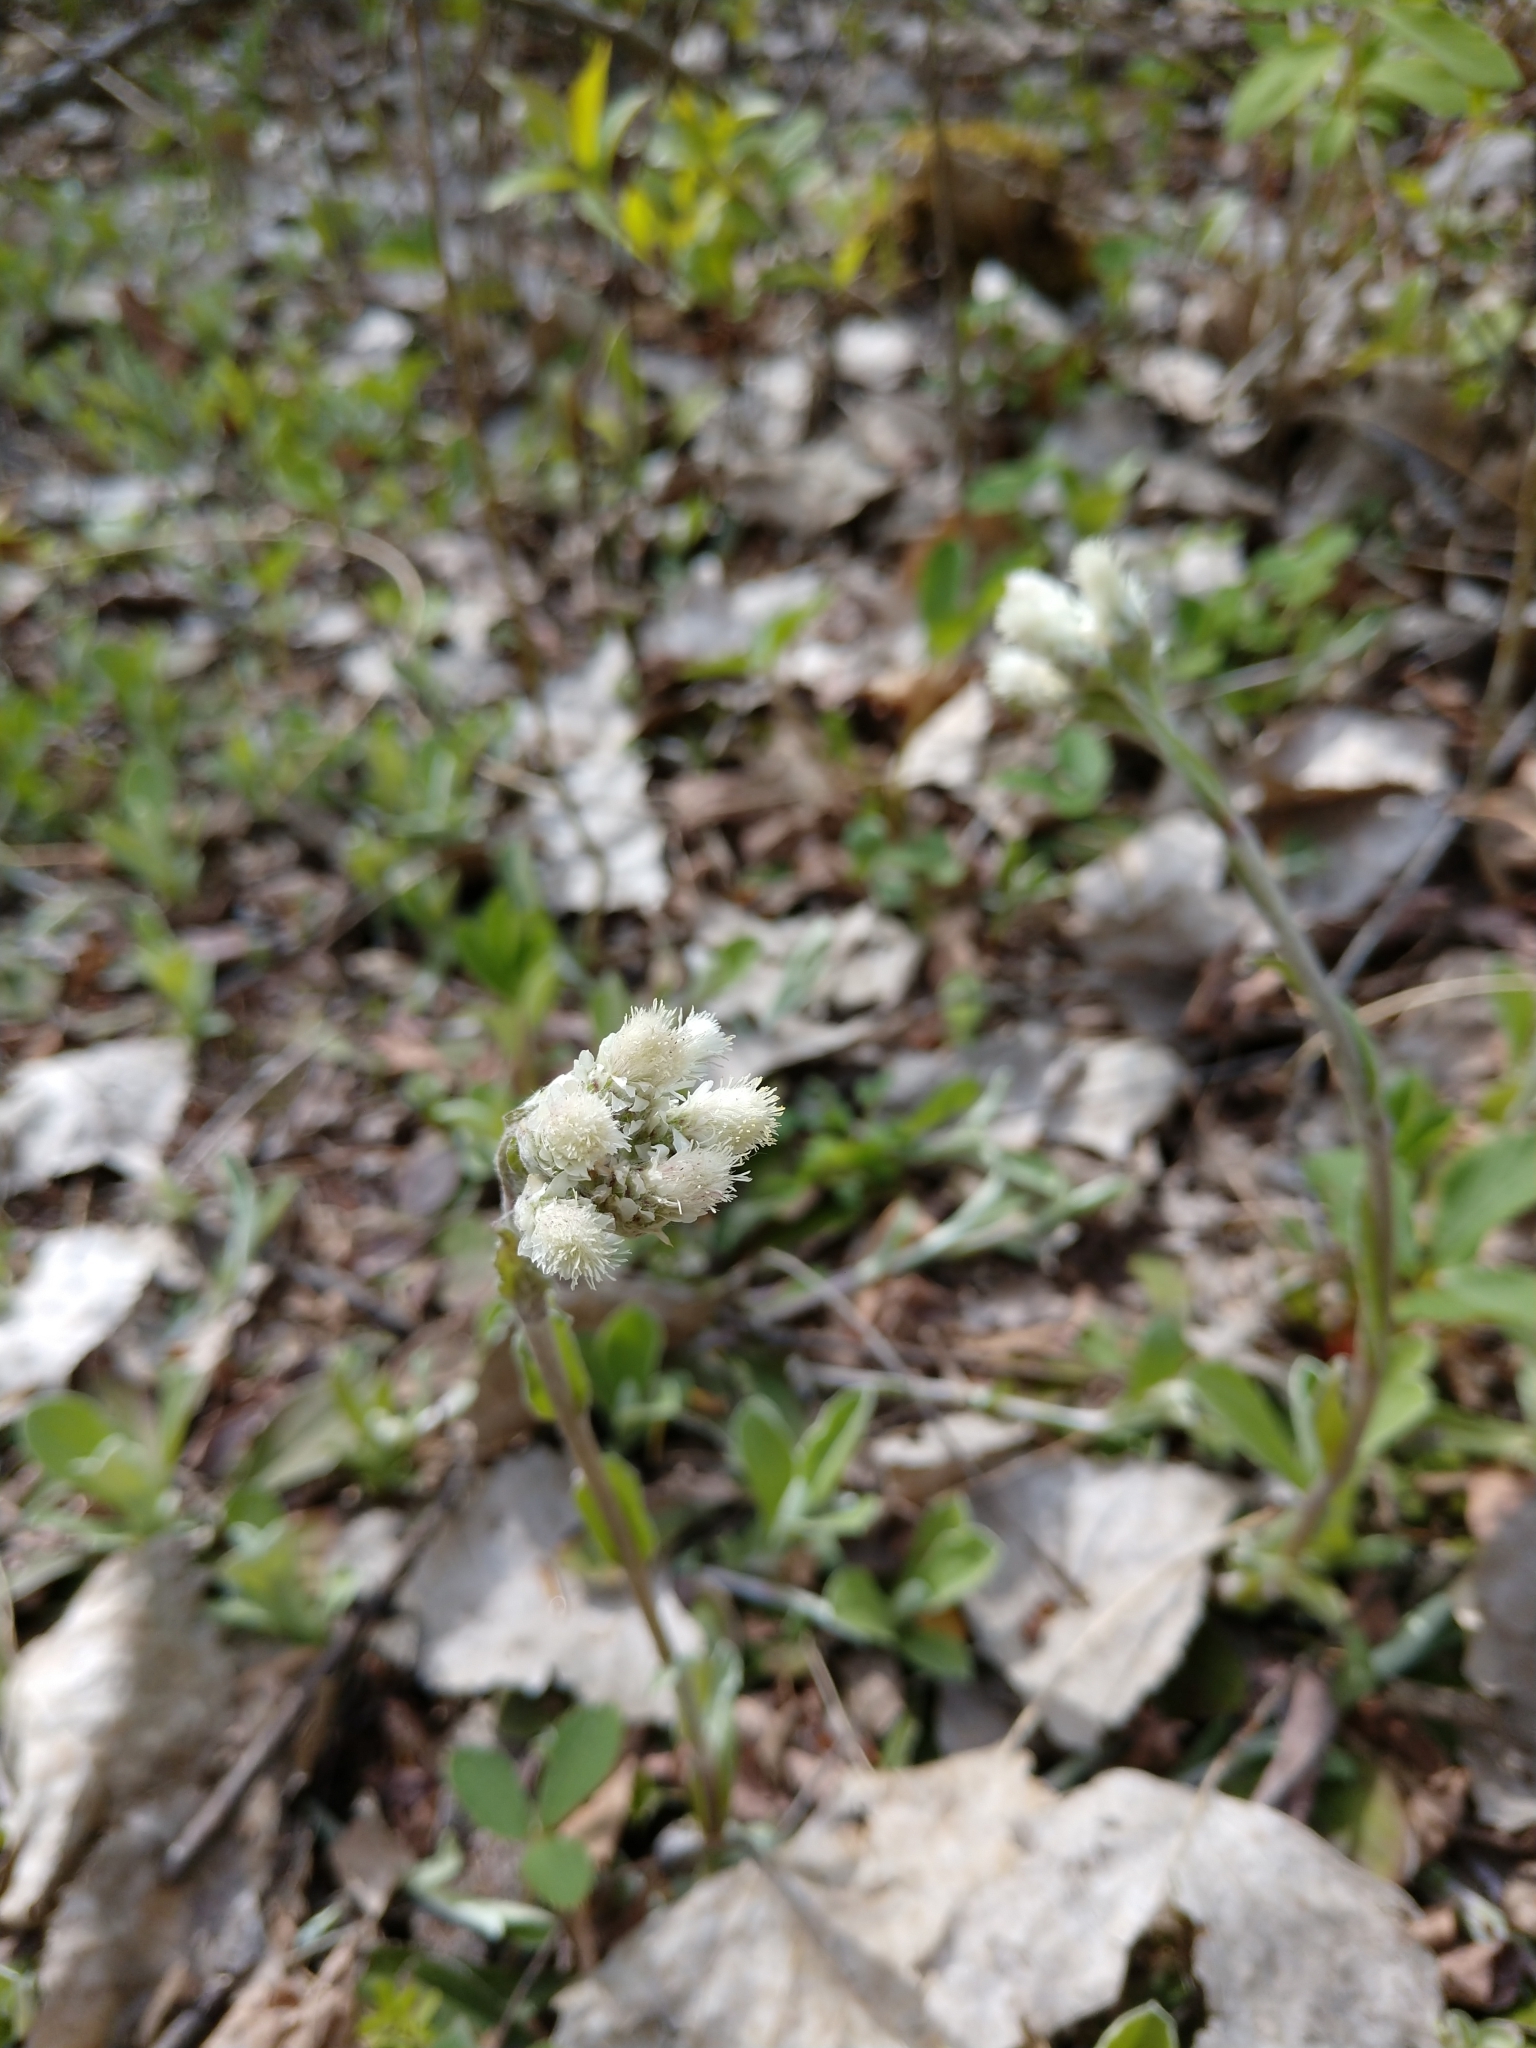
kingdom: Plantae
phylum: Tracheophyta
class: Magnoliopsida
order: Asterales
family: Asteraceae
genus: Antennaria
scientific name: Antennaria parlinii
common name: Parlin's pussytoes
